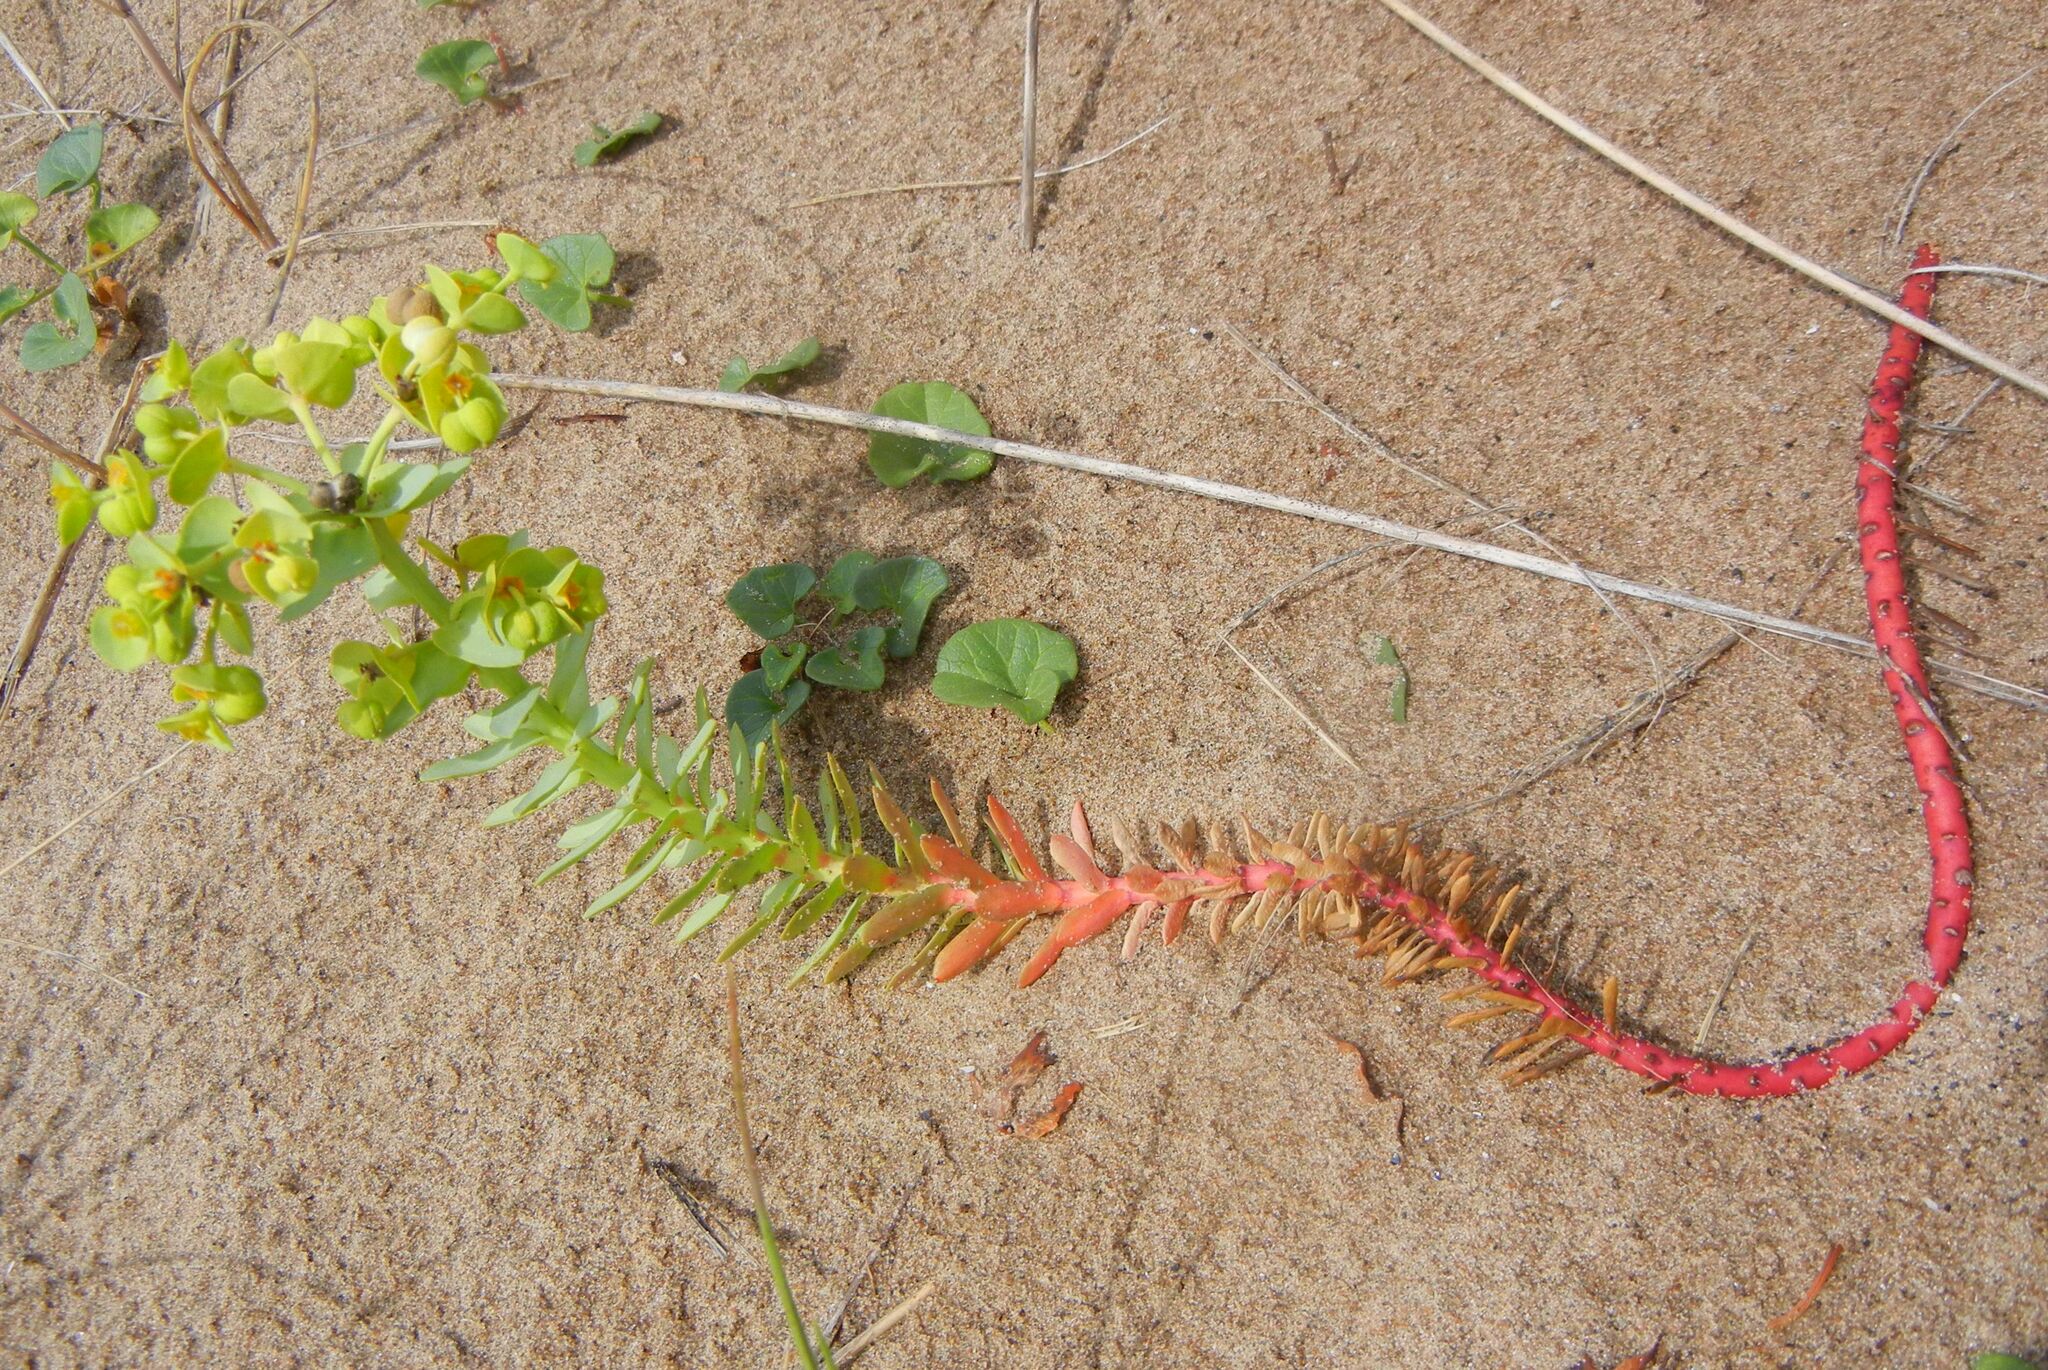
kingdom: Plantae
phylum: Tracheophyta
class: Magnoliopsida
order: Malpighiales
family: Euphorbiaceae
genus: Euphorbia
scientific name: Euphorbia paralias
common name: Sea spurge
